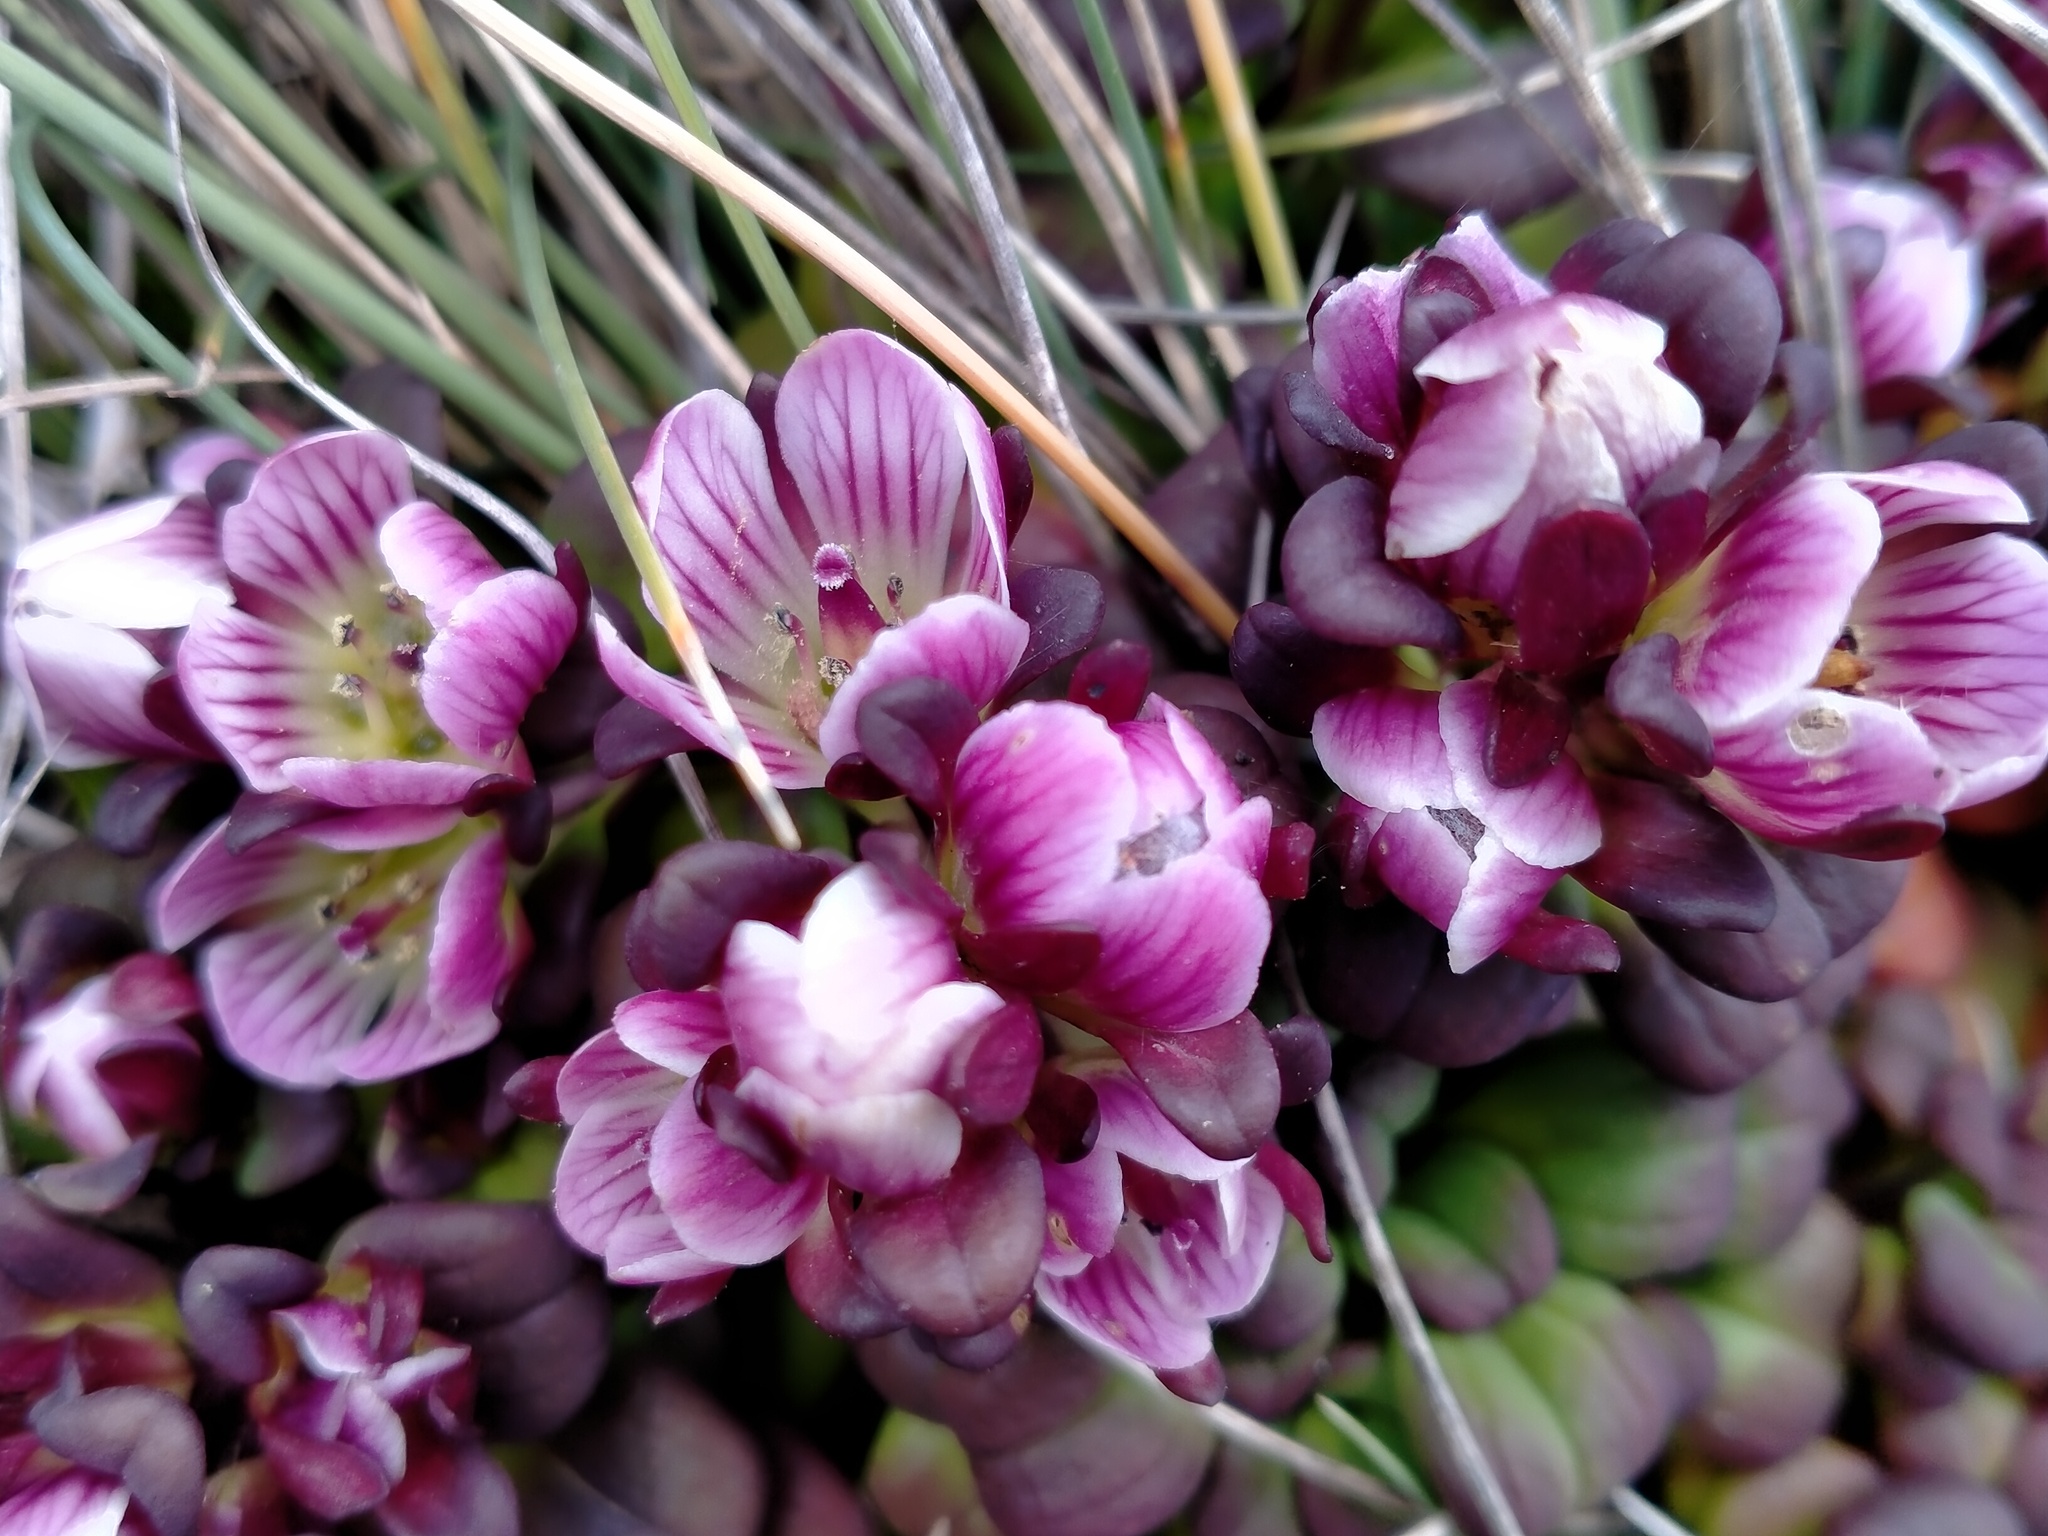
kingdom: Plantae
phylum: Tracheophyta
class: Magnoliopsida
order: Gentianales
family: Gentianaceae
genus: Gentianella
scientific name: Gentianella cerina
